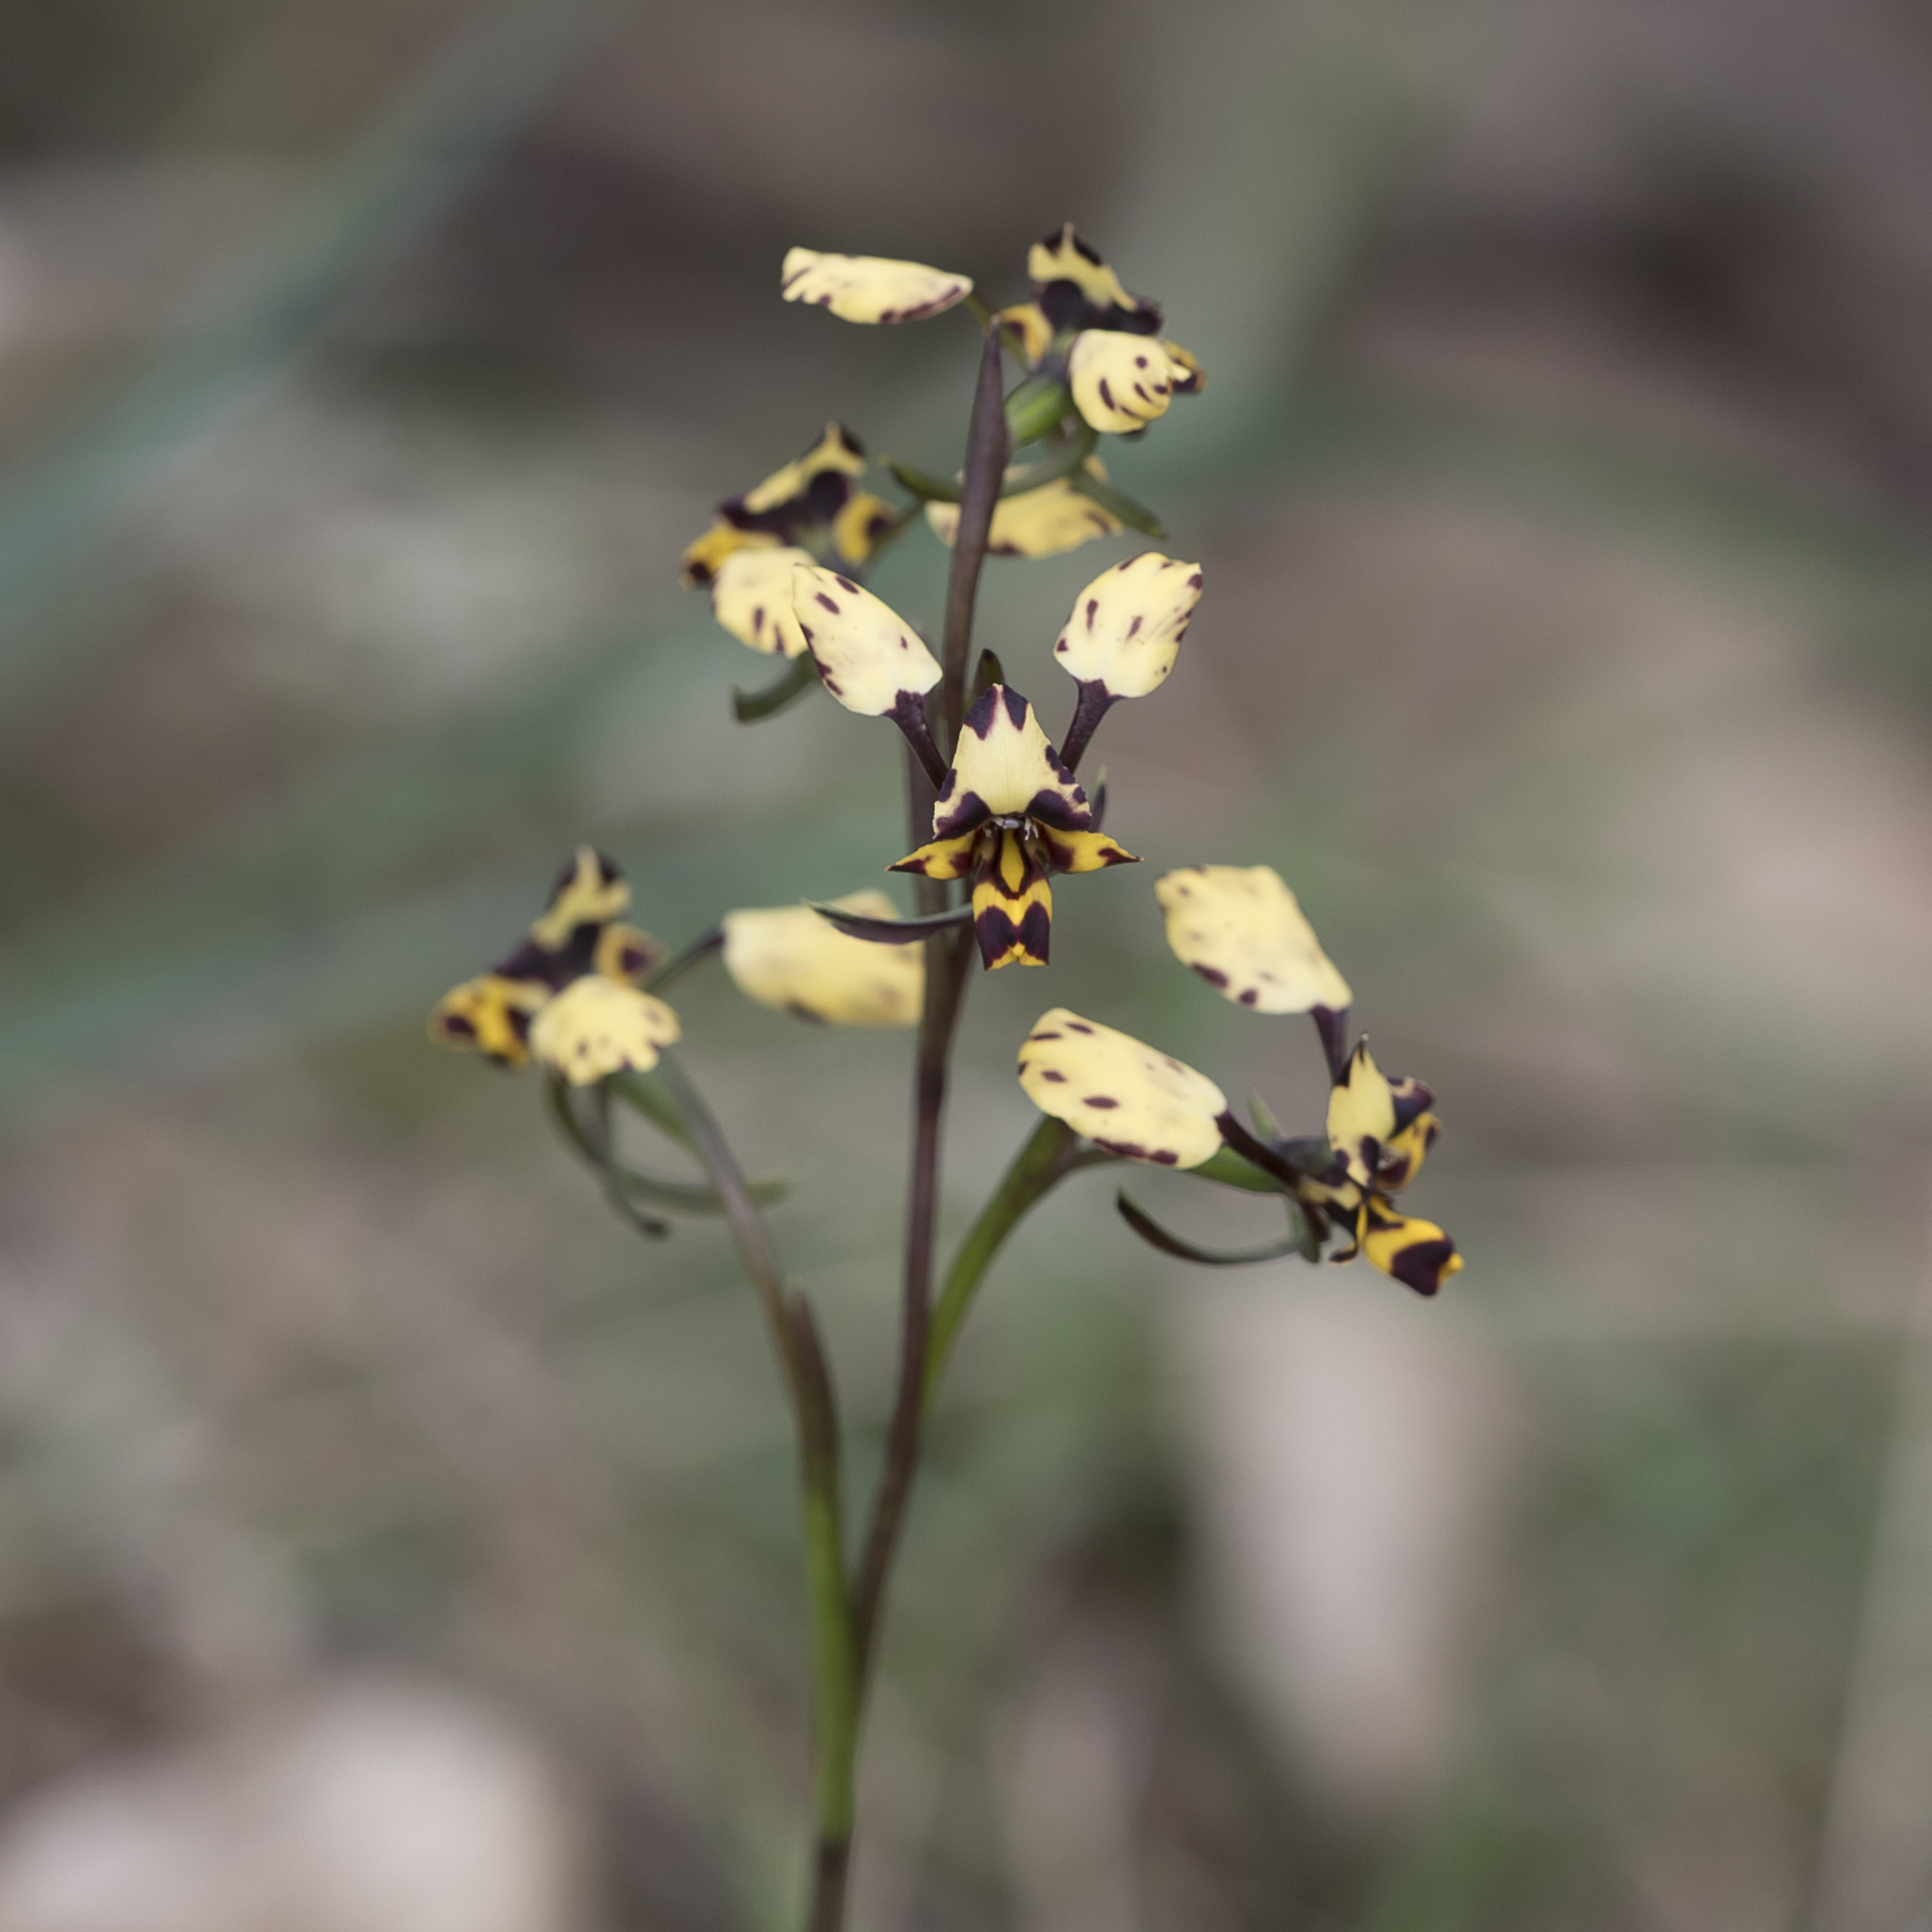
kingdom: Plantae
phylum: Tracheophyta
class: Liliopsida
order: Asparagales
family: Orchidaceae
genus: Diuris
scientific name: Diuris pardina
